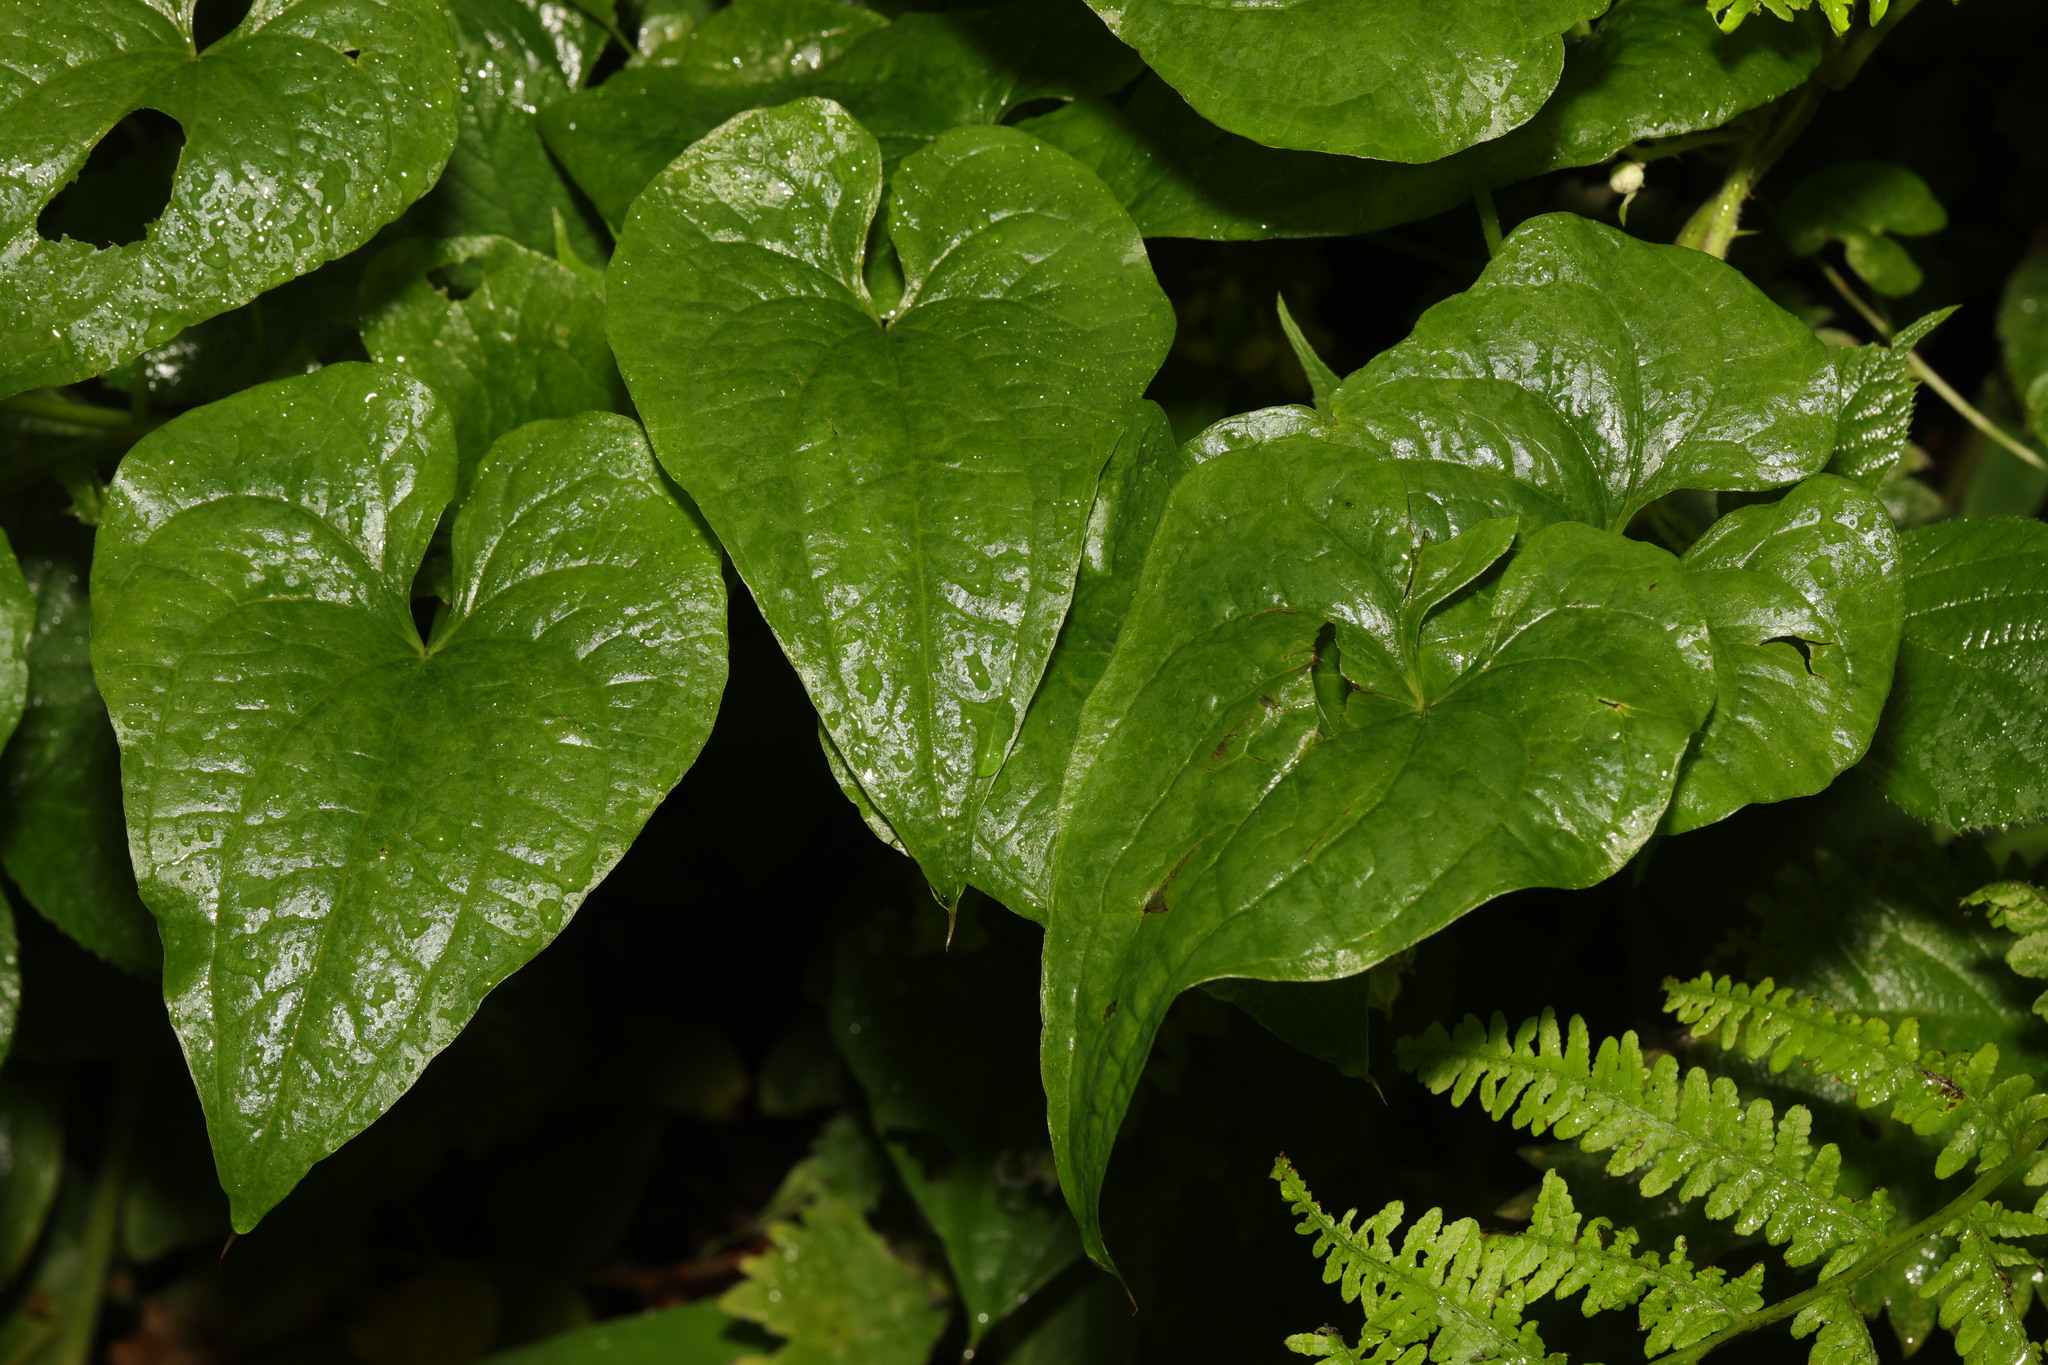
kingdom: Plantae
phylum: Tracheophyta
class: Liliopsida
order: Dioscoreales
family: Dioscoreaceae
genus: Dioscorea
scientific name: Dioscorea communis
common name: Black-bindweed
